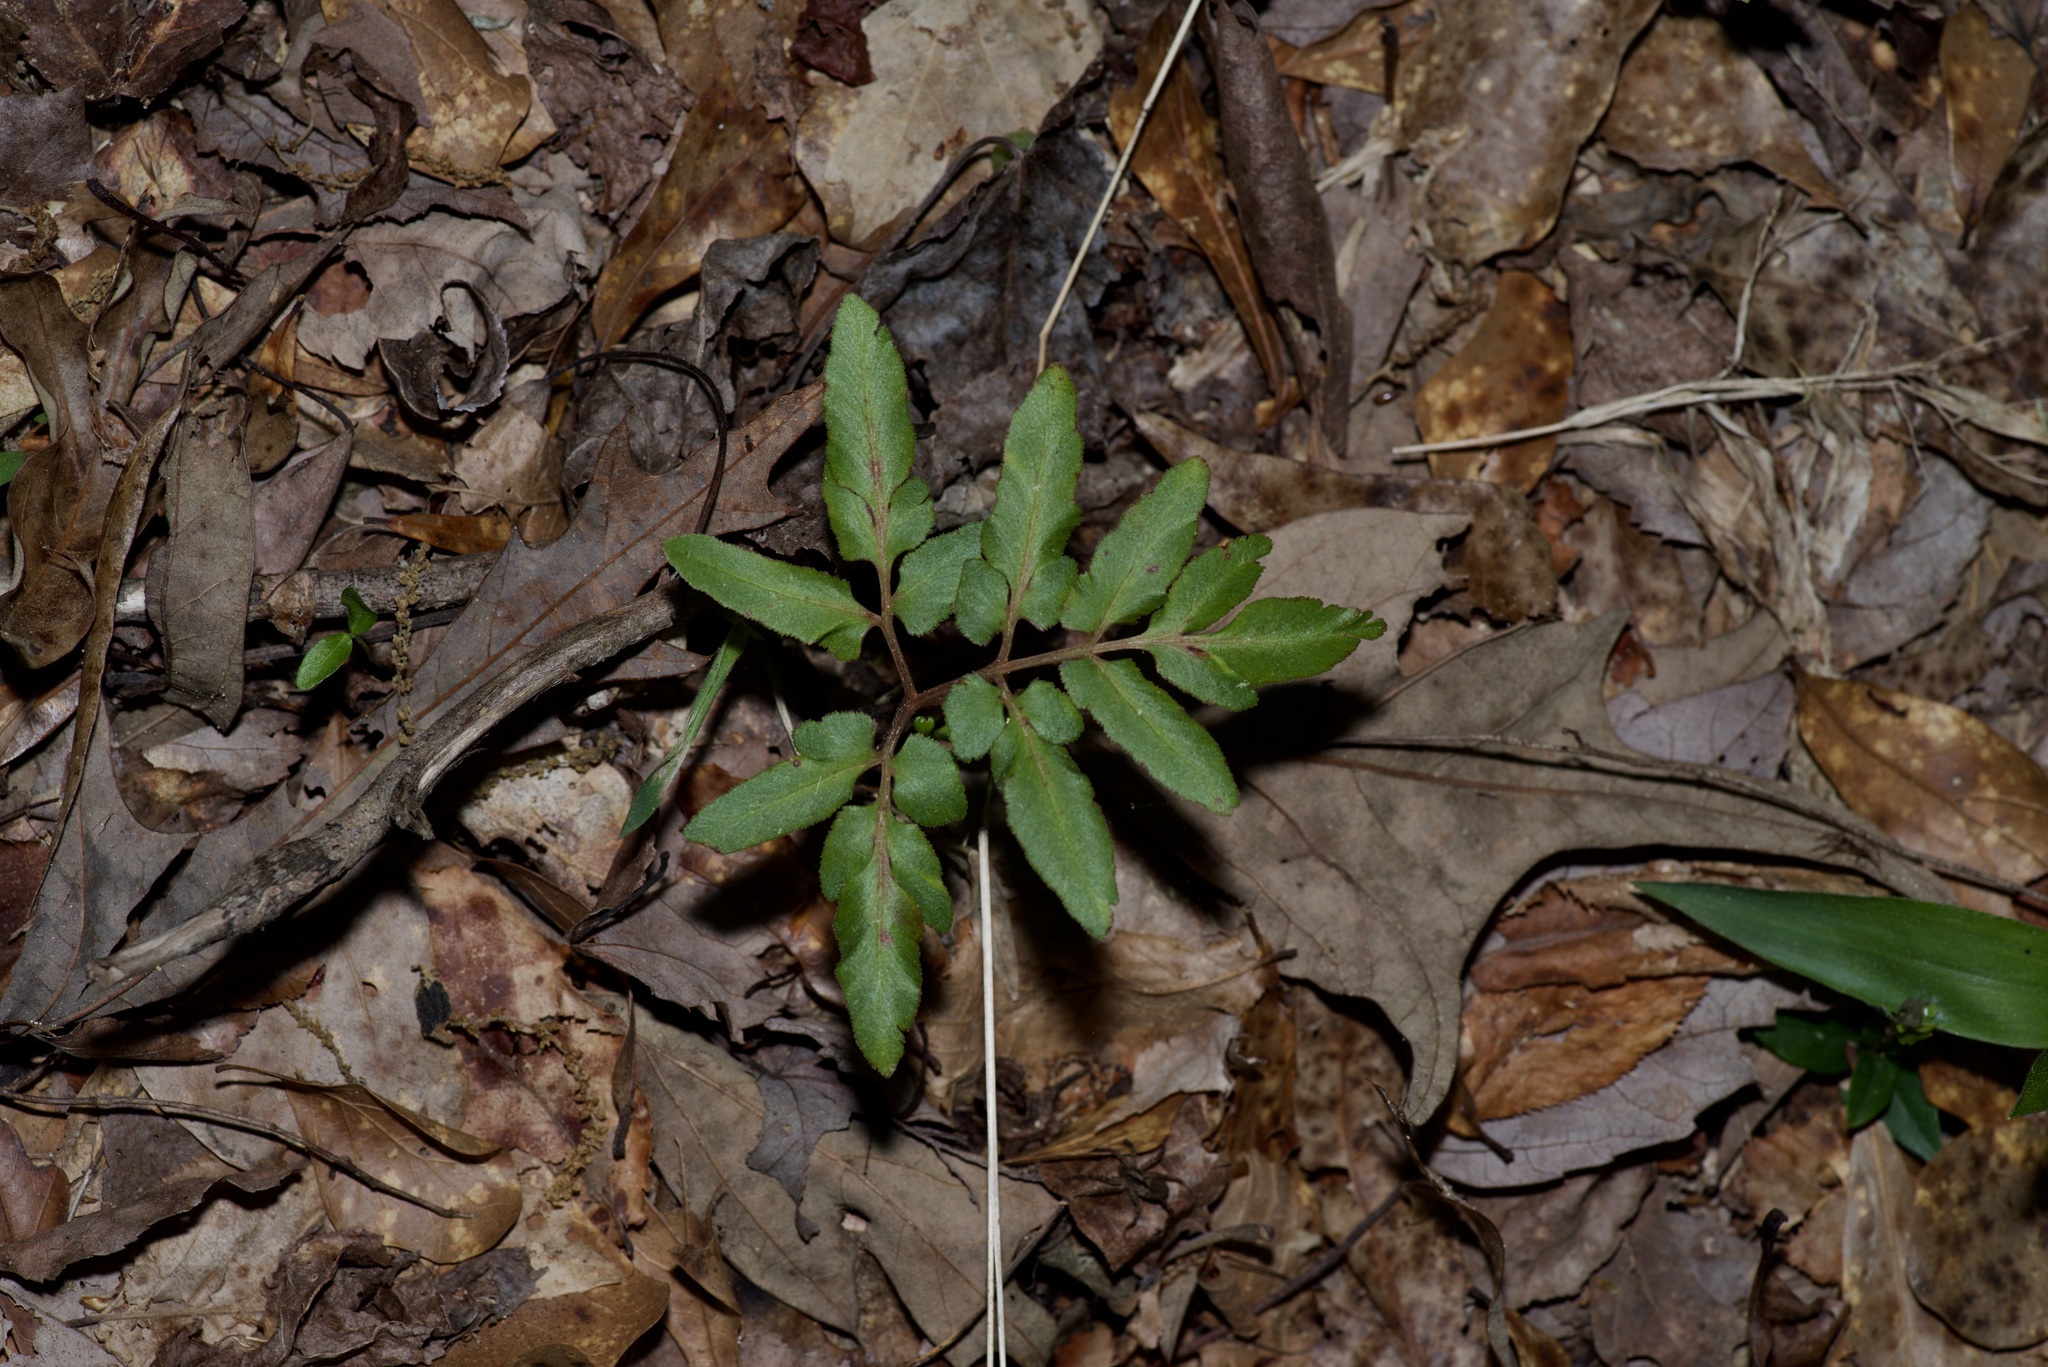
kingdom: Plantae
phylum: Tracheophyta
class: Polypodiopsida
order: Ophioglossales
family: Ophioglossaceae
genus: Sceptridium
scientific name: Sceptridium biternatum
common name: Sparse-lobed grapefern
